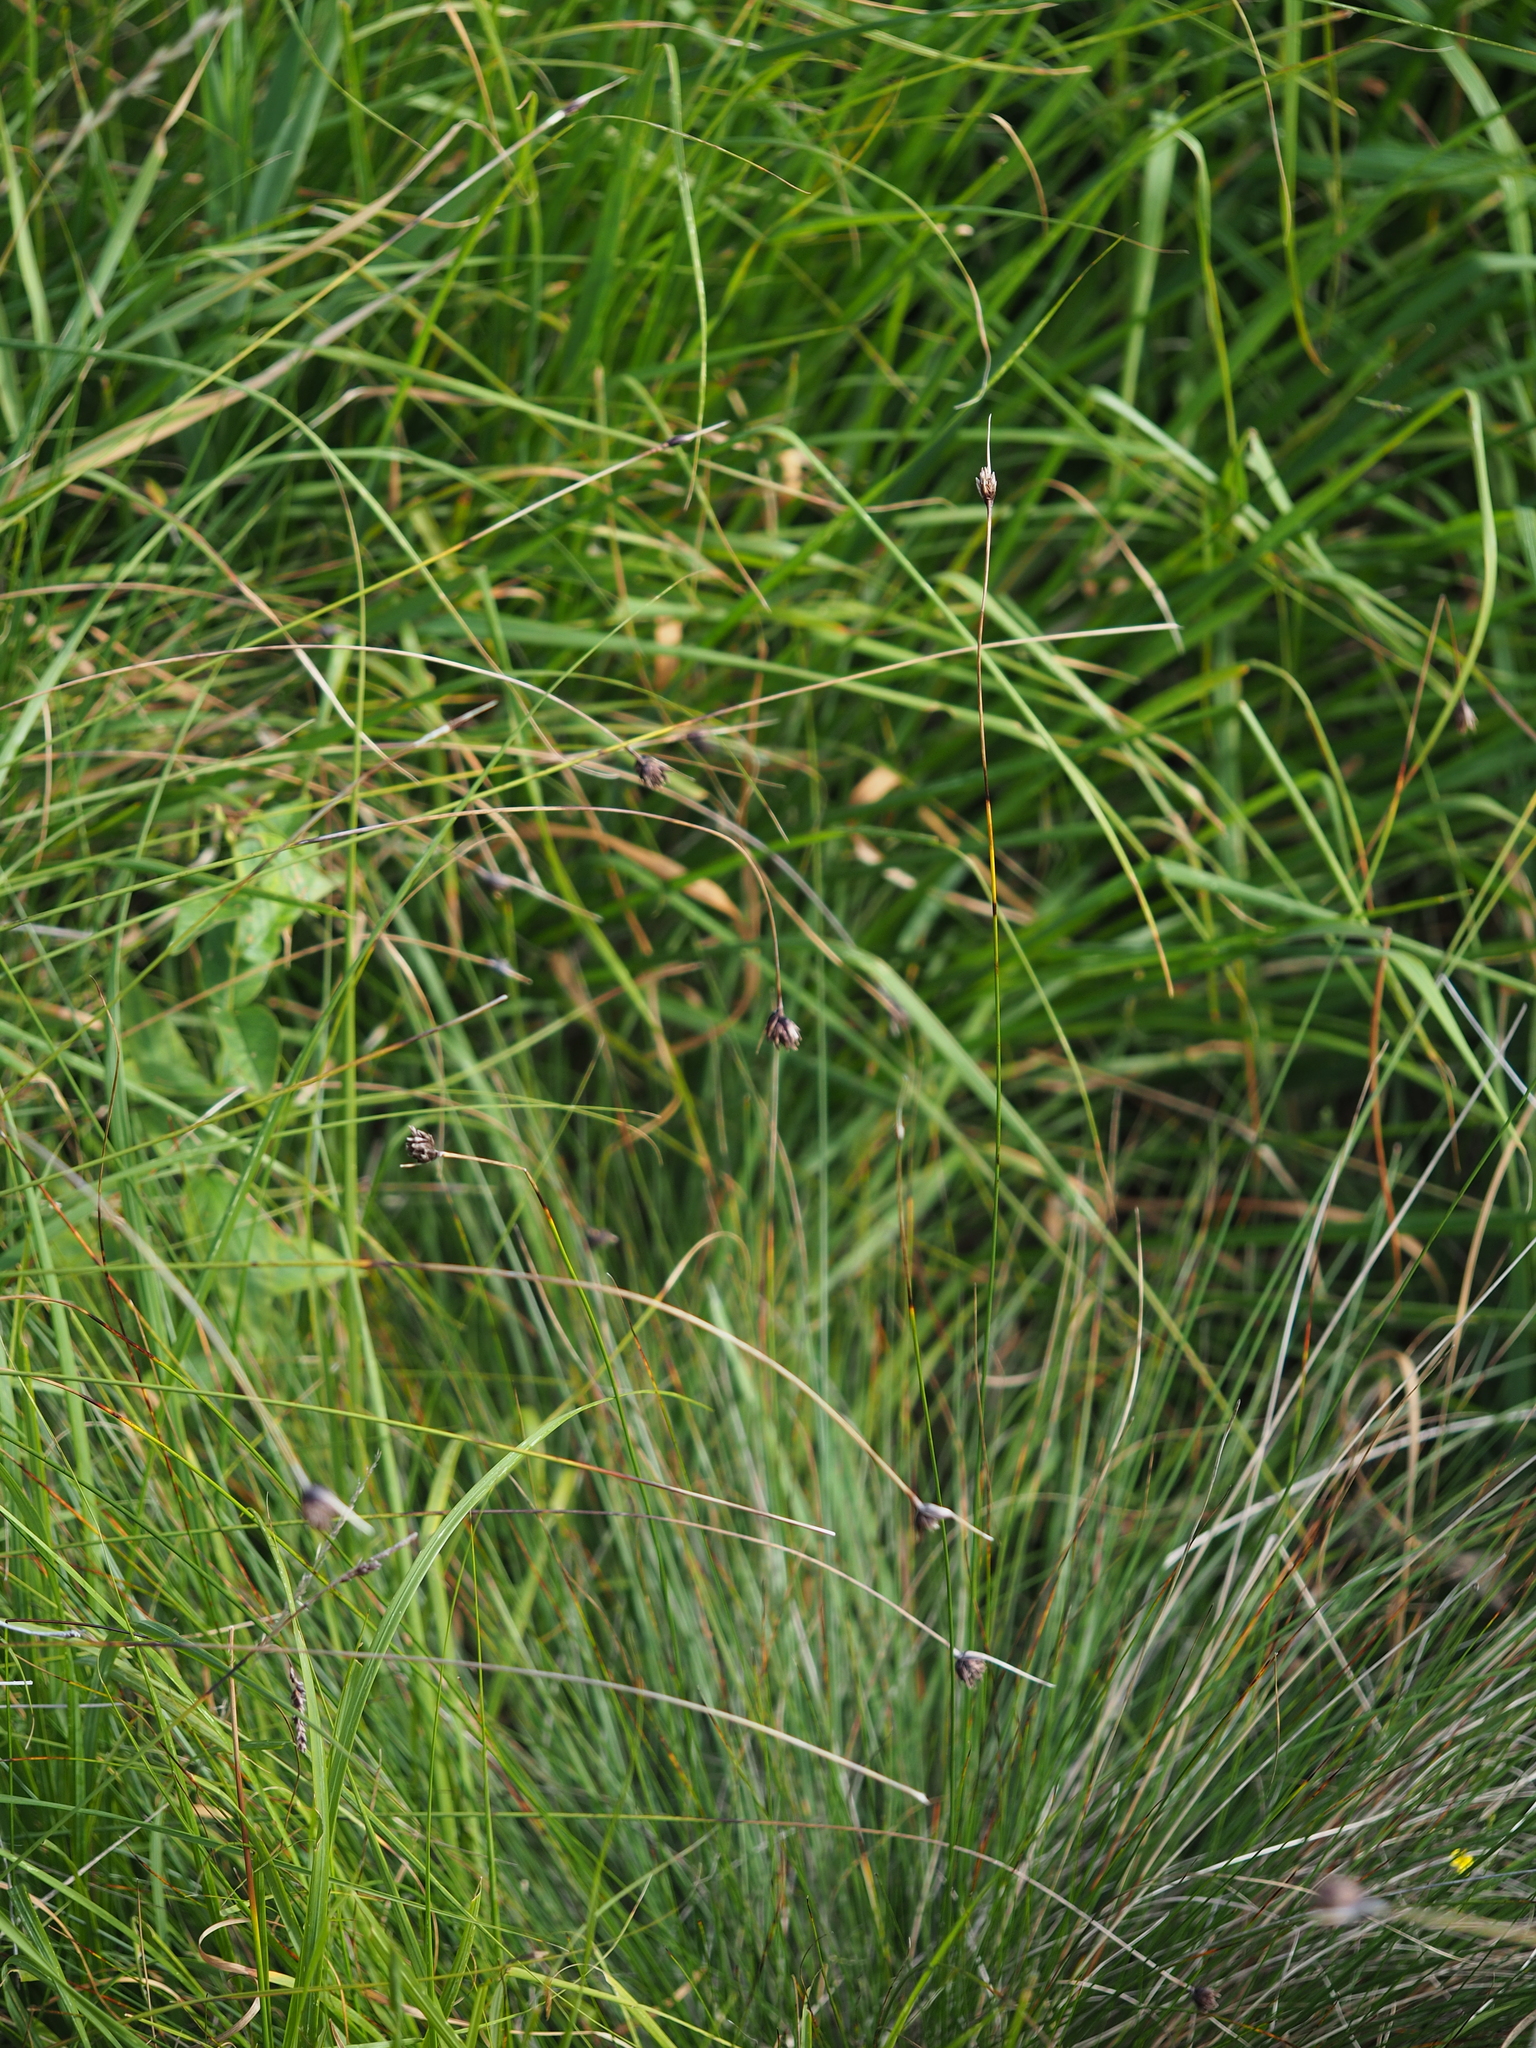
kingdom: Plantae
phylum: Tracheophyta
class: Liliopsida
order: Poales
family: Cyperaceae
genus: Schoenus
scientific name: Schoenus nigricans
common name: Black bog-rush
